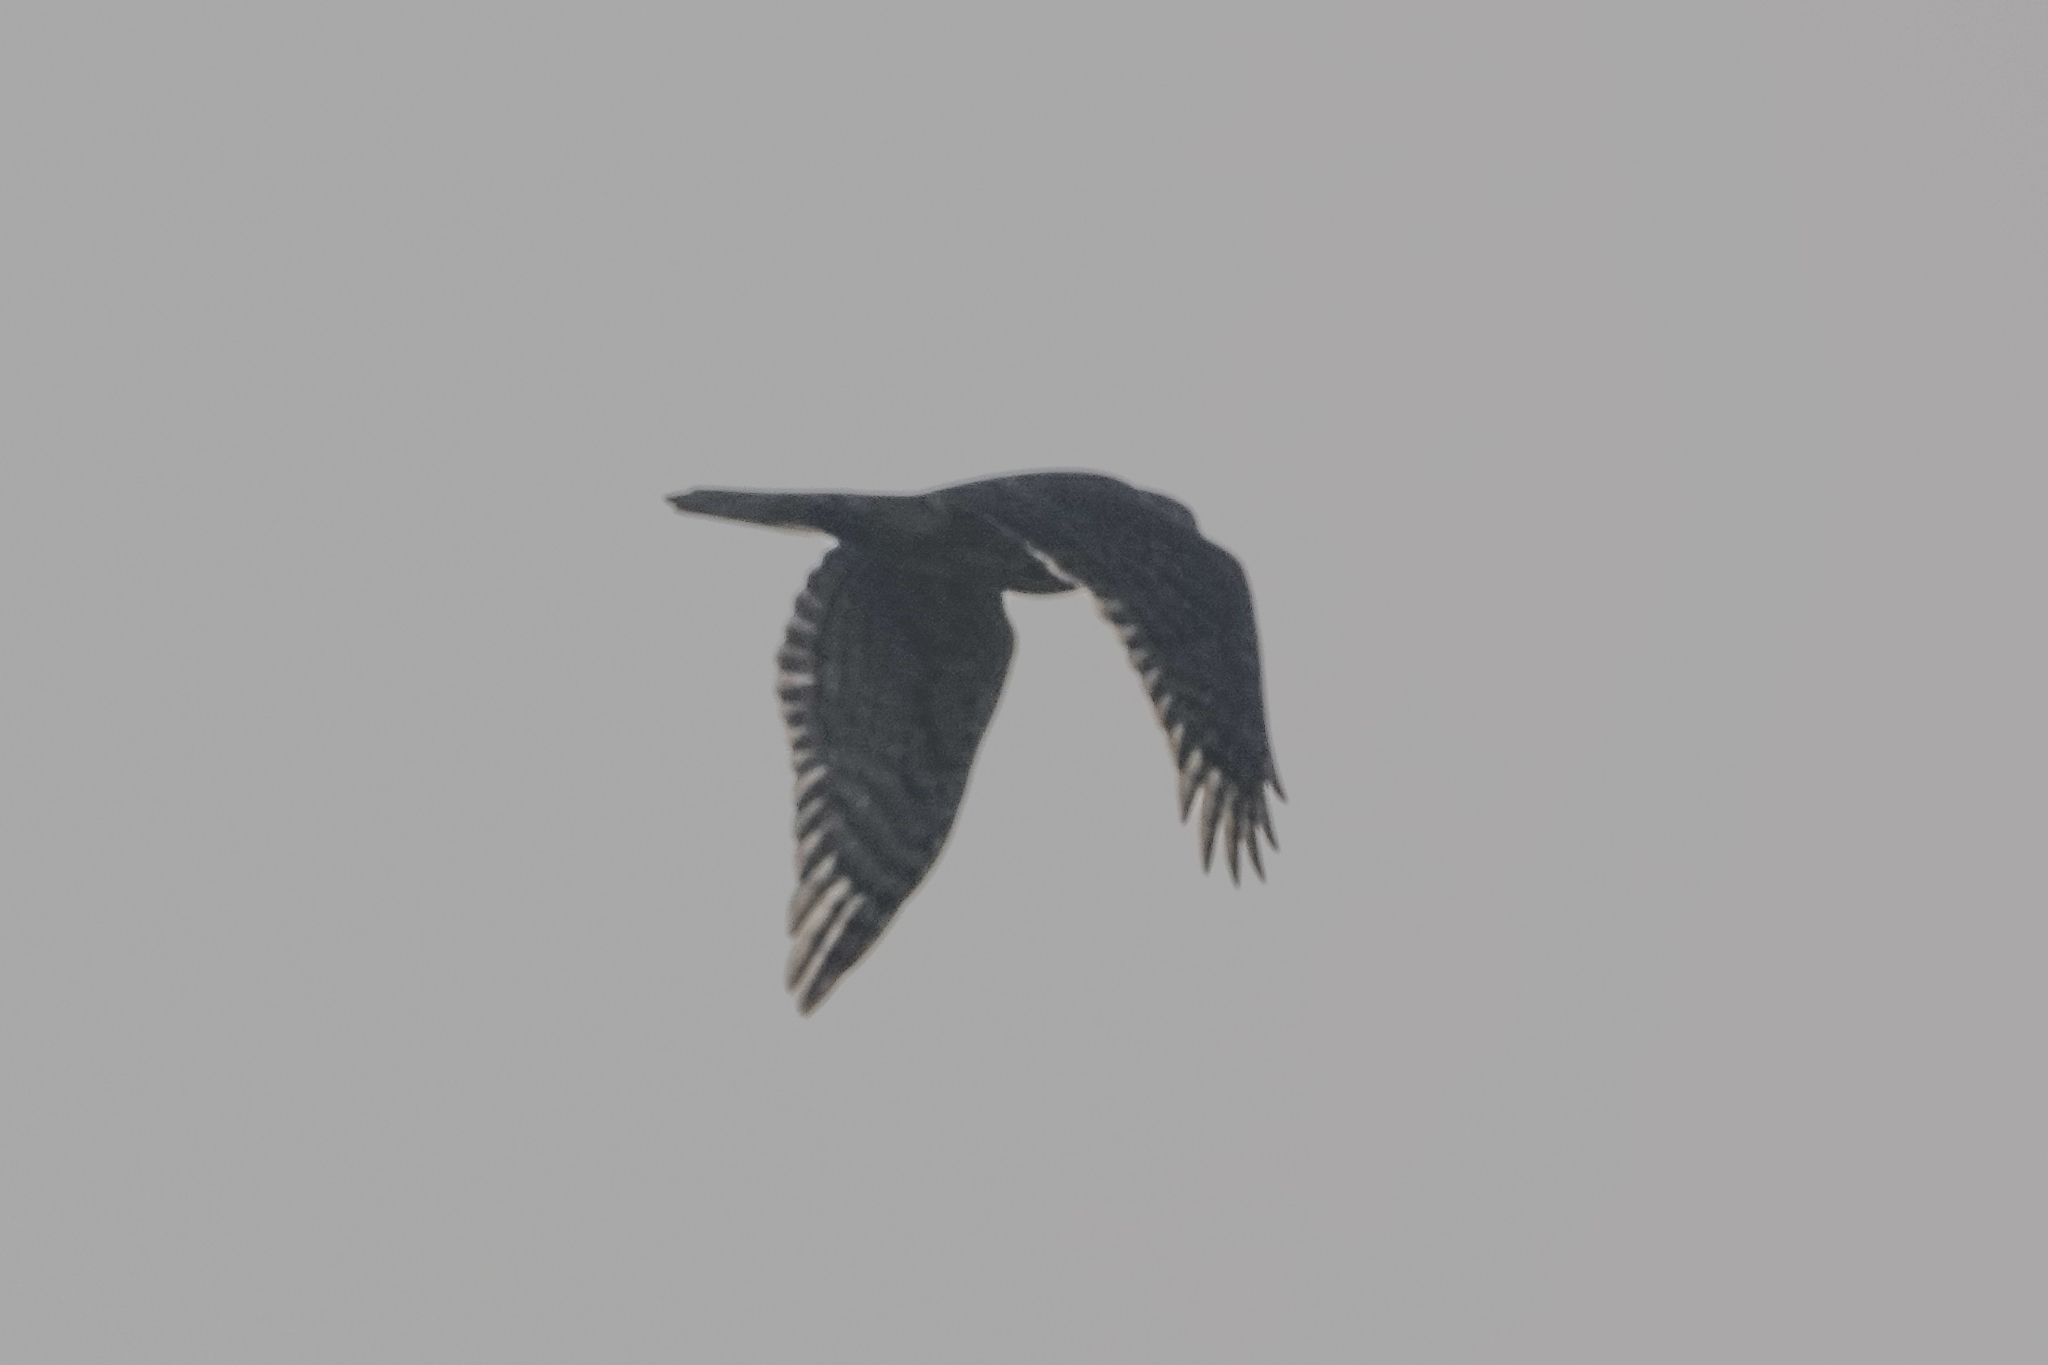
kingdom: Animalia
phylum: Chordata
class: Aves
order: Accipitriformes
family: Accipitridae
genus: Accipiter
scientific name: Accipiter gentilis
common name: Northern goshawk
